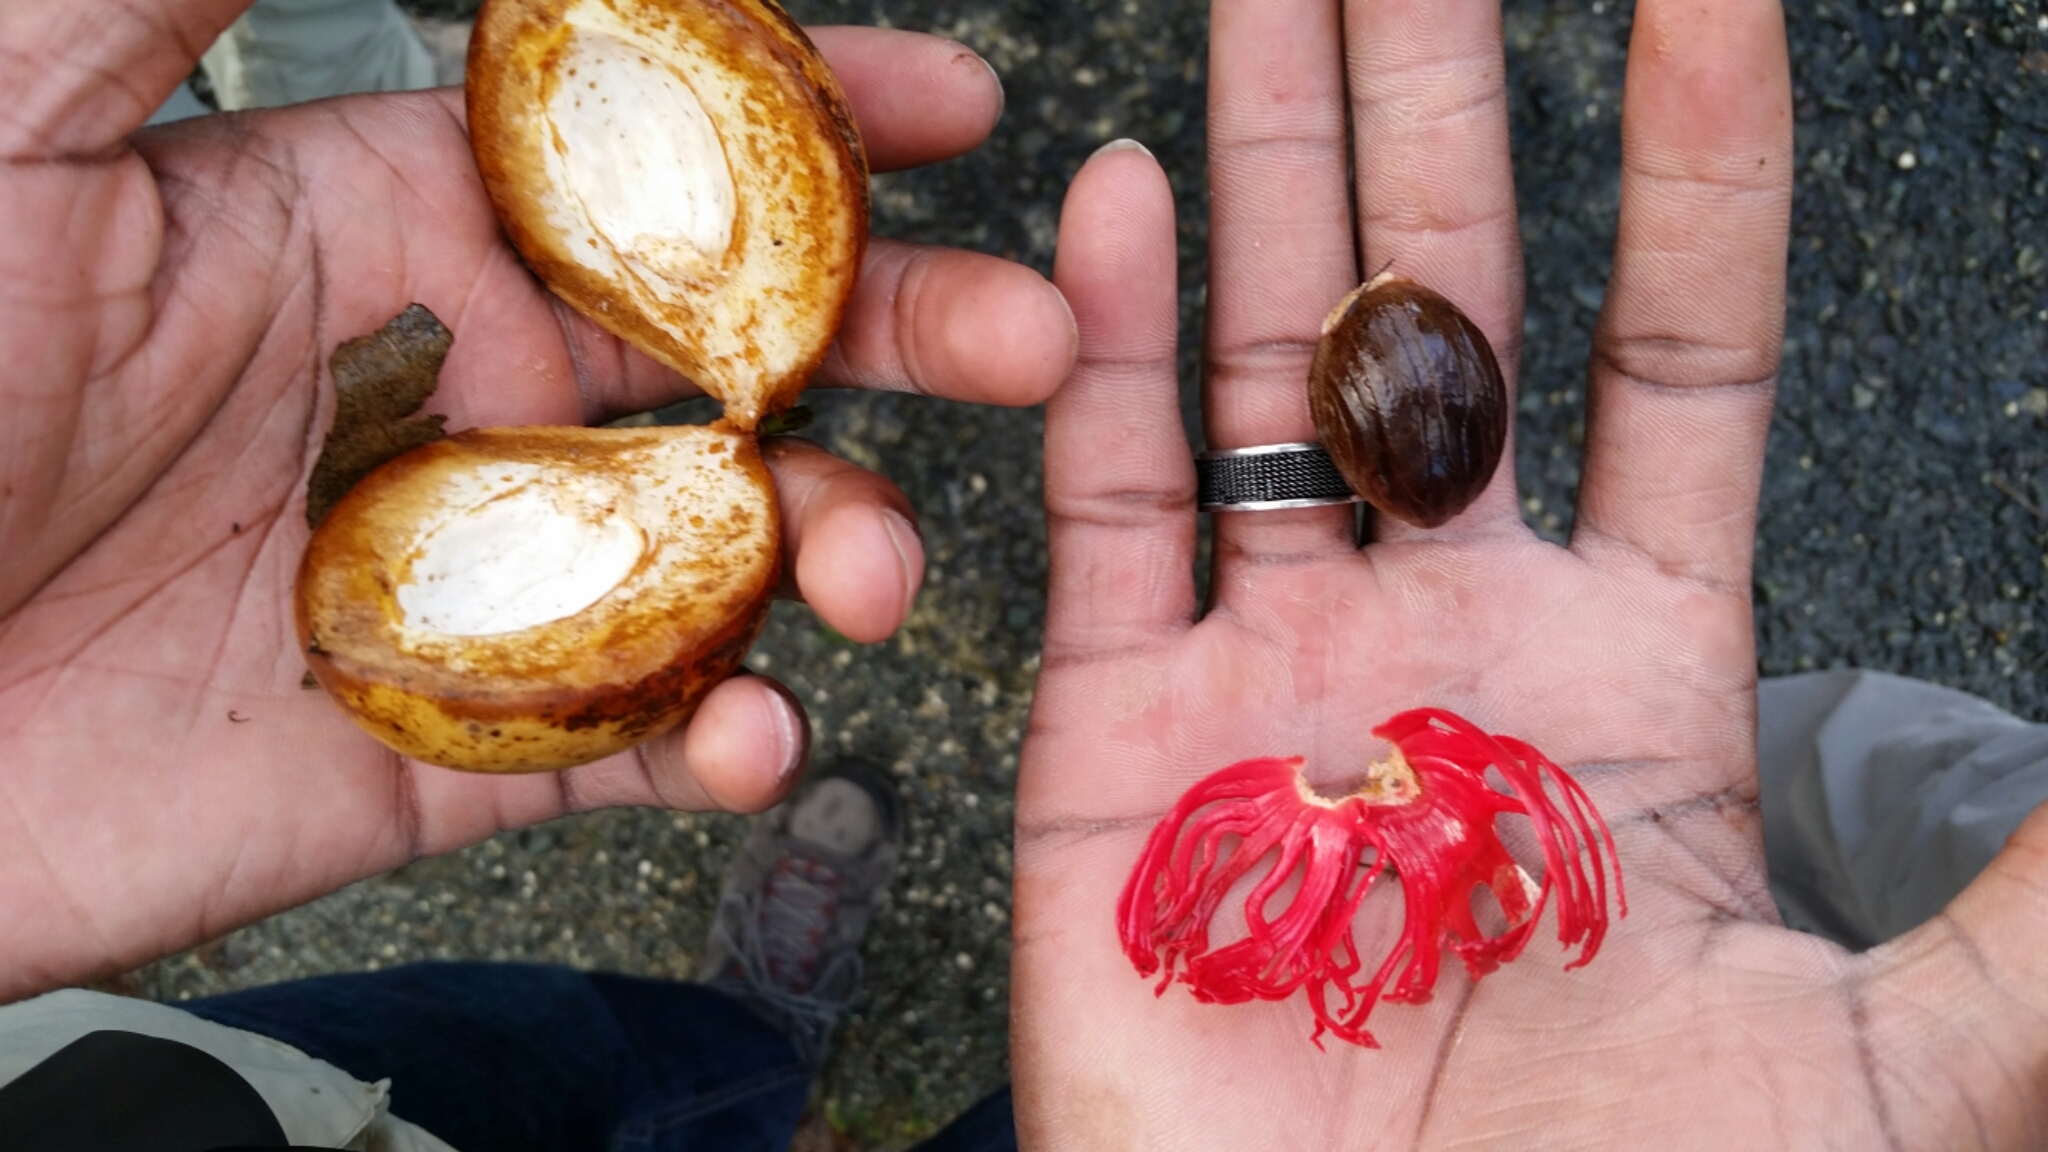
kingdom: Plantae
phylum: Tracheophyta
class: Magnoliopsida
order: Magnoliales
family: Myristicaceae
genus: Myristica
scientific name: Myristica fragrans
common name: Nutmeg
